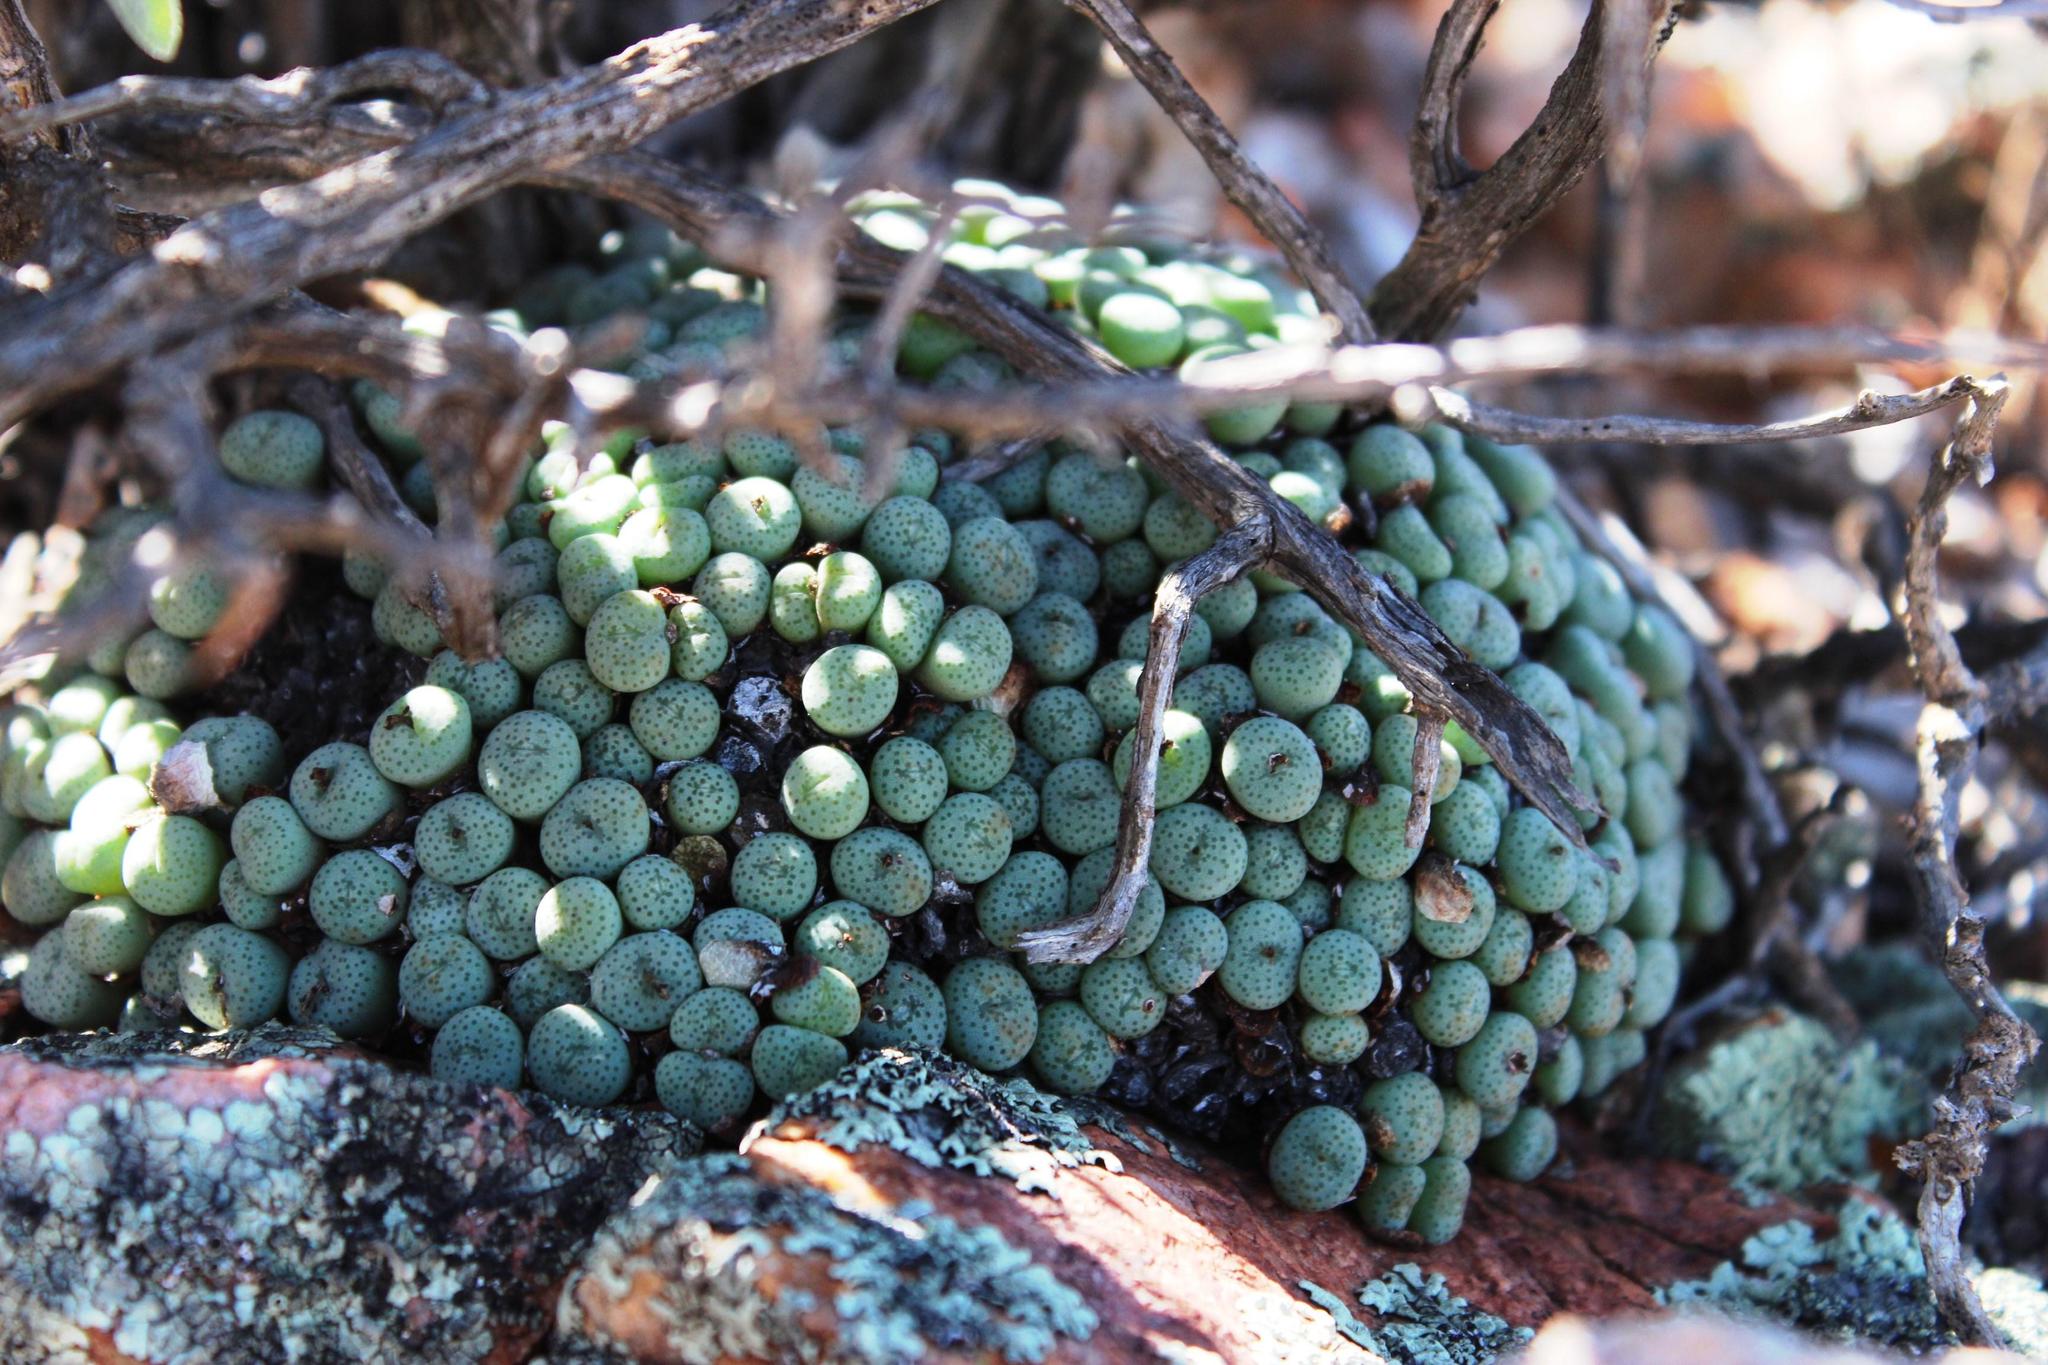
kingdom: Plantae
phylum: Tracheophyta
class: Magnoliopsida
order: Caryophyllales
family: Aizoaceae
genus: Conophytum
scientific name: Conophytum wettsteinii
